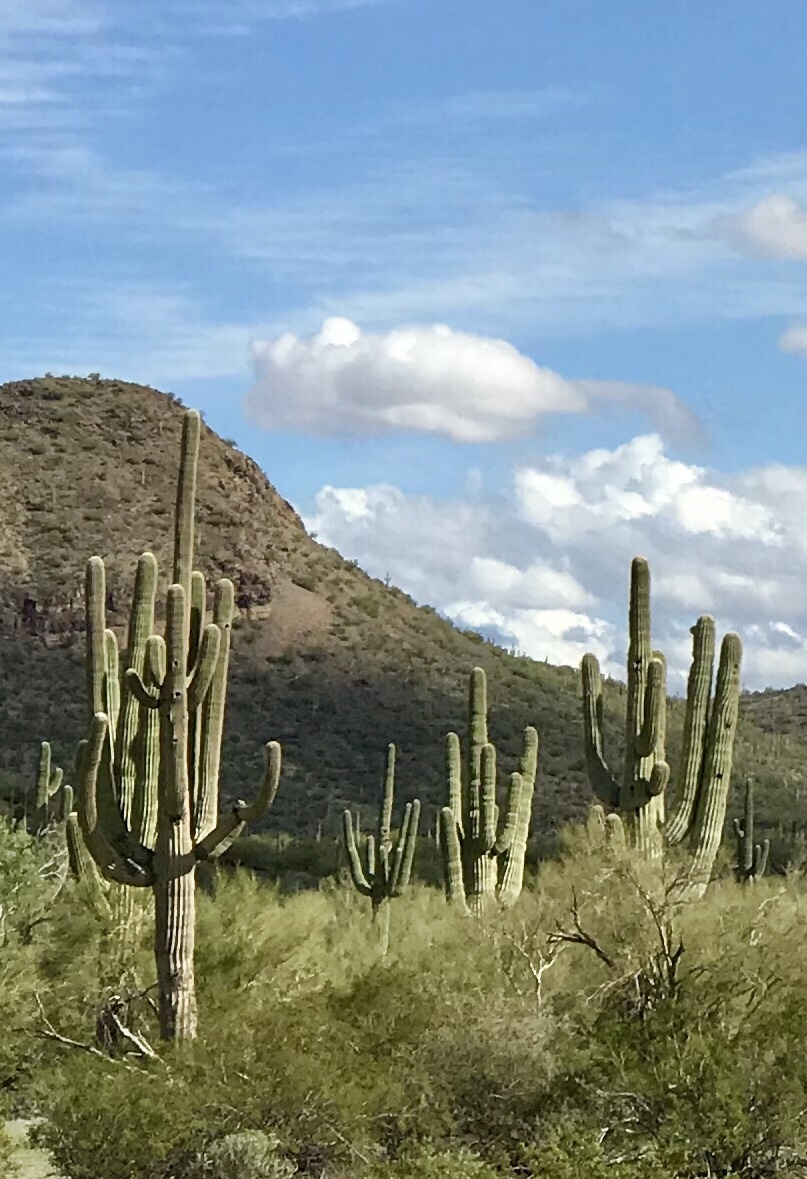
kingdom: Plantae
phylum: Tracheophyta
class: Magnoliopsida
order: Caryophyllales
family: Cactaceae
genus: Carnegiea
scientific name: Carnegiea gigantea
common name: Saguaro
